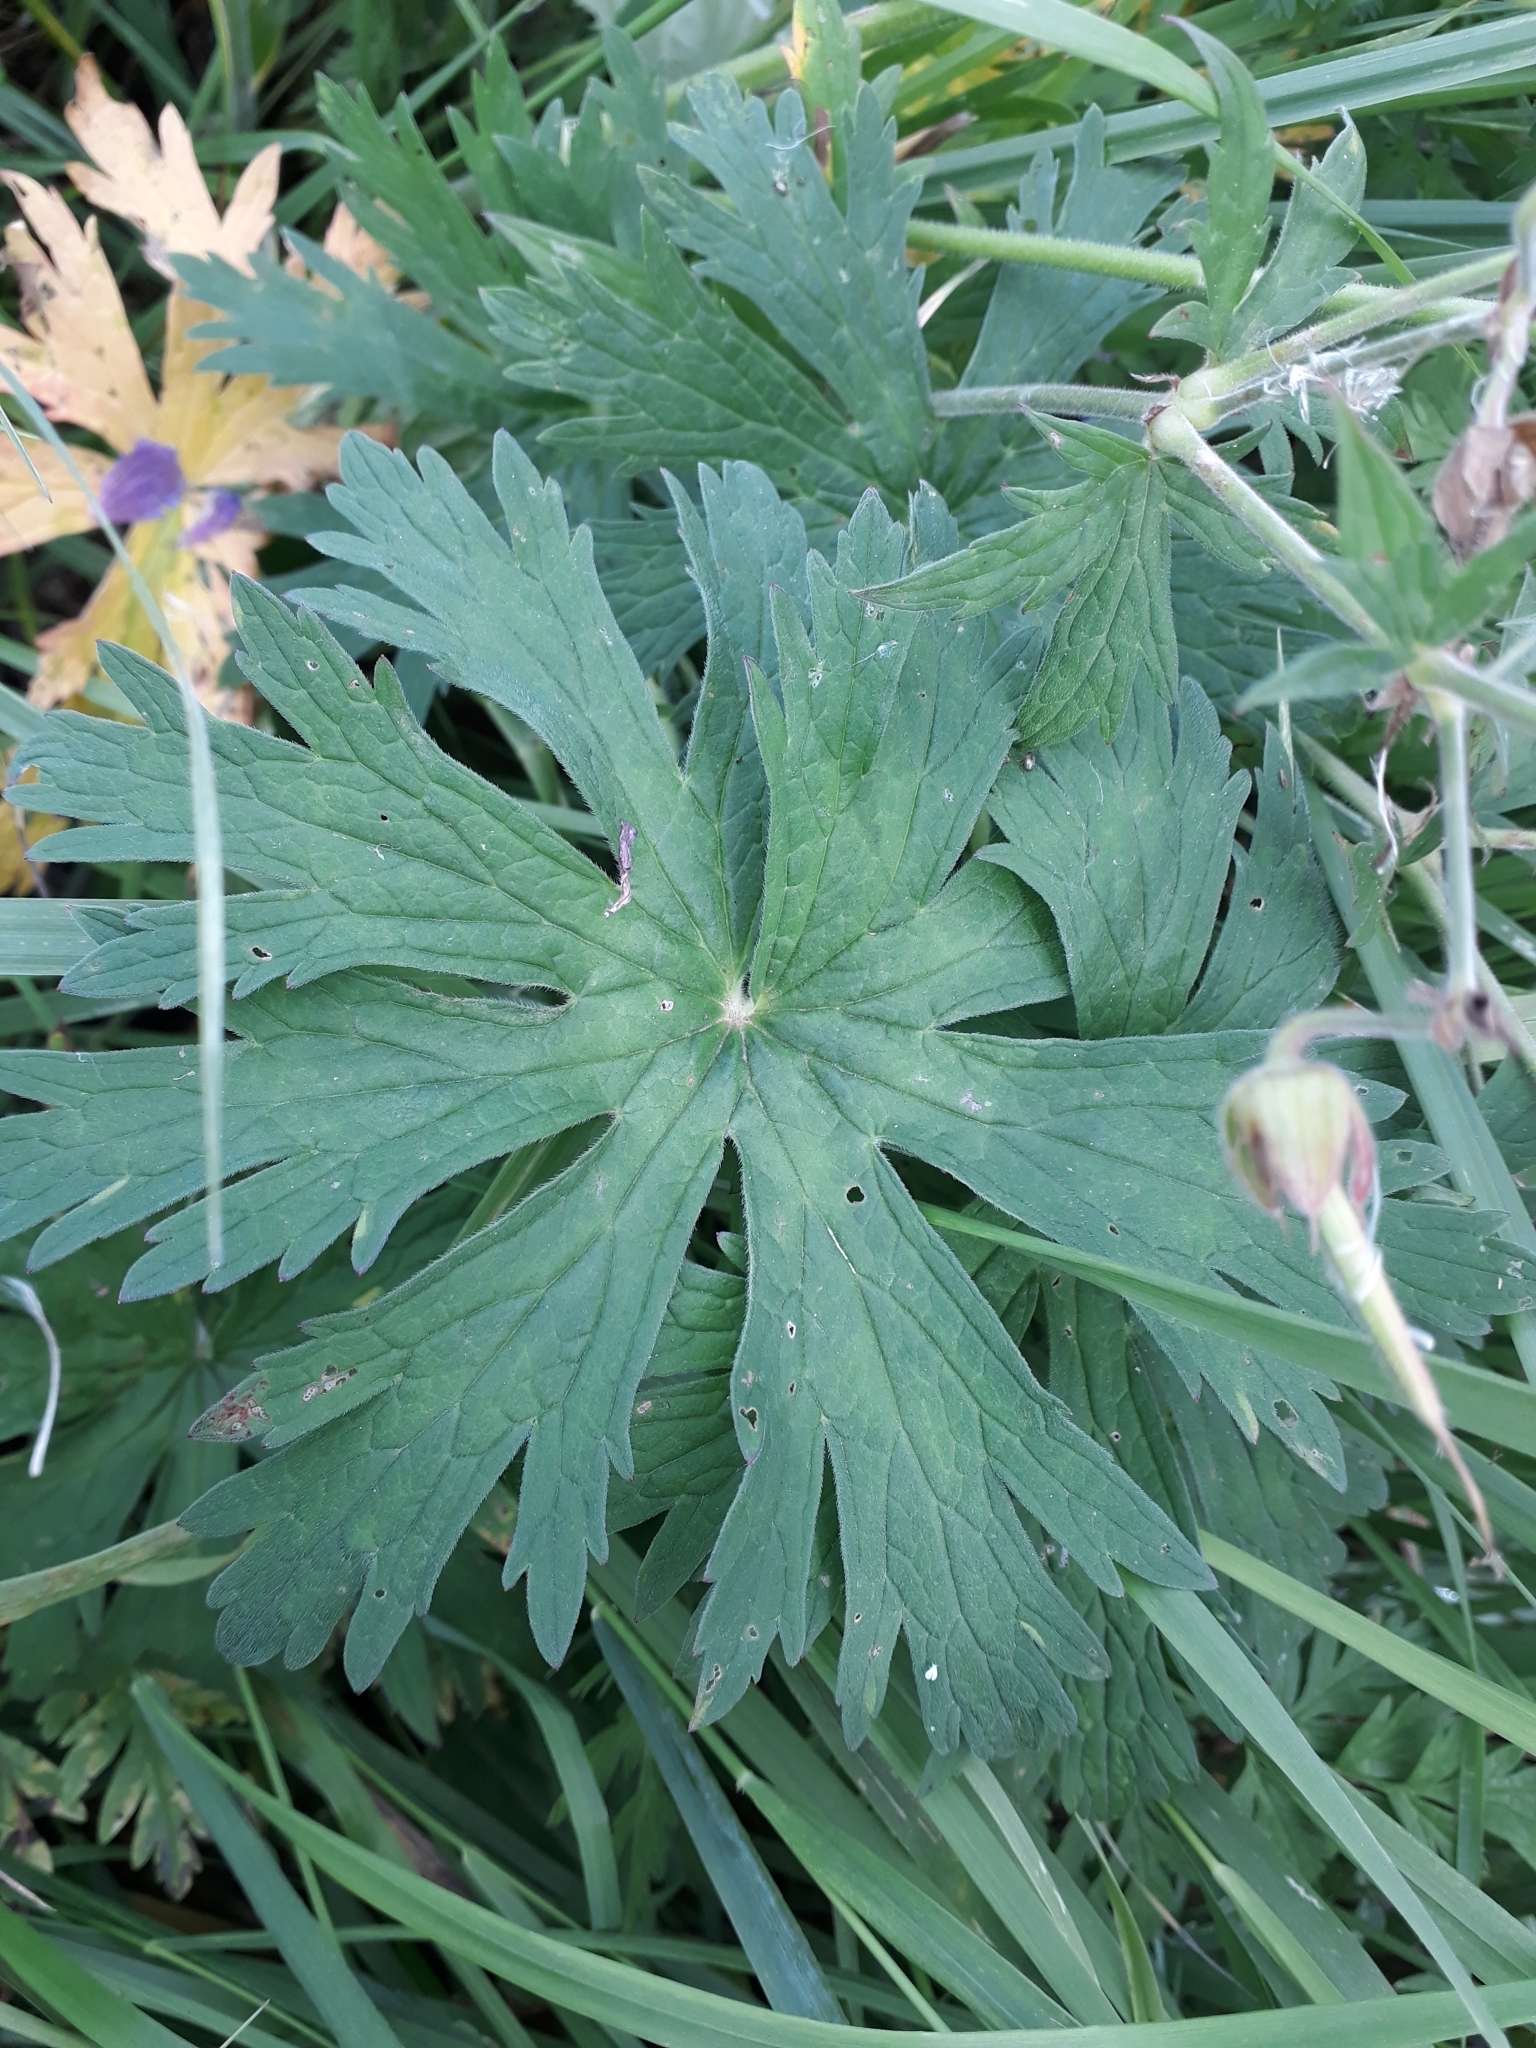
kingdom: Plantae
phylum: Tracheophyta
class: Magnoliopsida
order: Geraniales
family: Geraniaceae
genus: Geranium
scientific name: Geranium pratense
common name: Meadow crane's-bill
